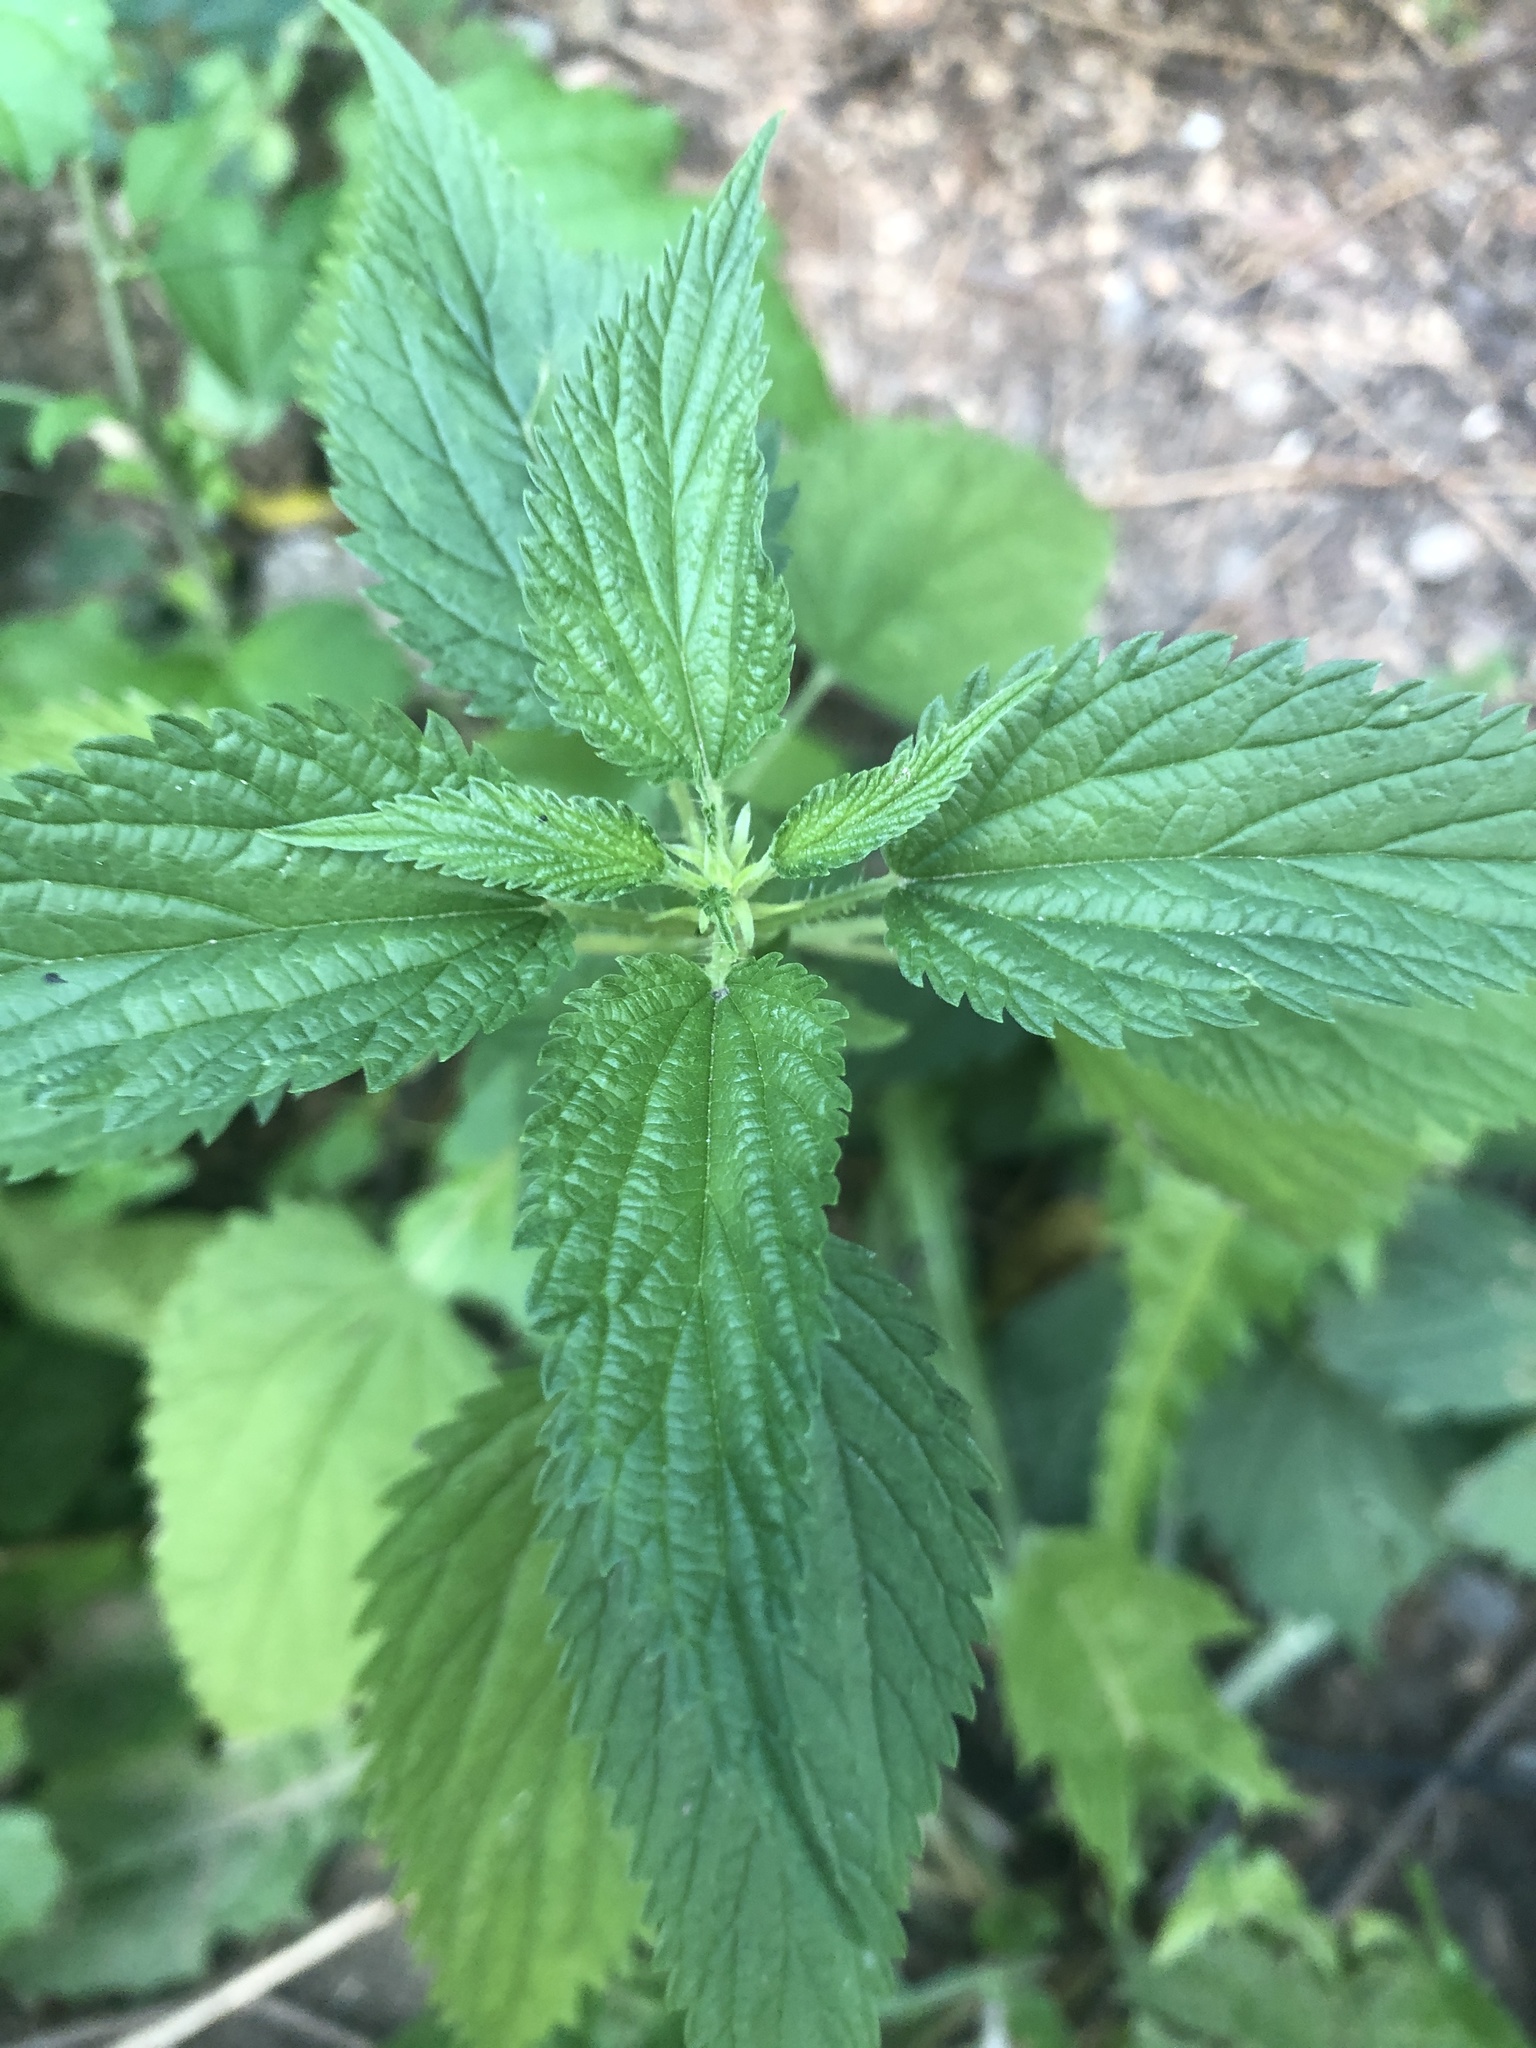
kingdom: Plantae
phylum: Tracheophyta
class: Magnoliopsida
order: Rosales
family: Urticaceae
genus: Urtica
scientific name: Urtica dioica
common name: Common nettle
